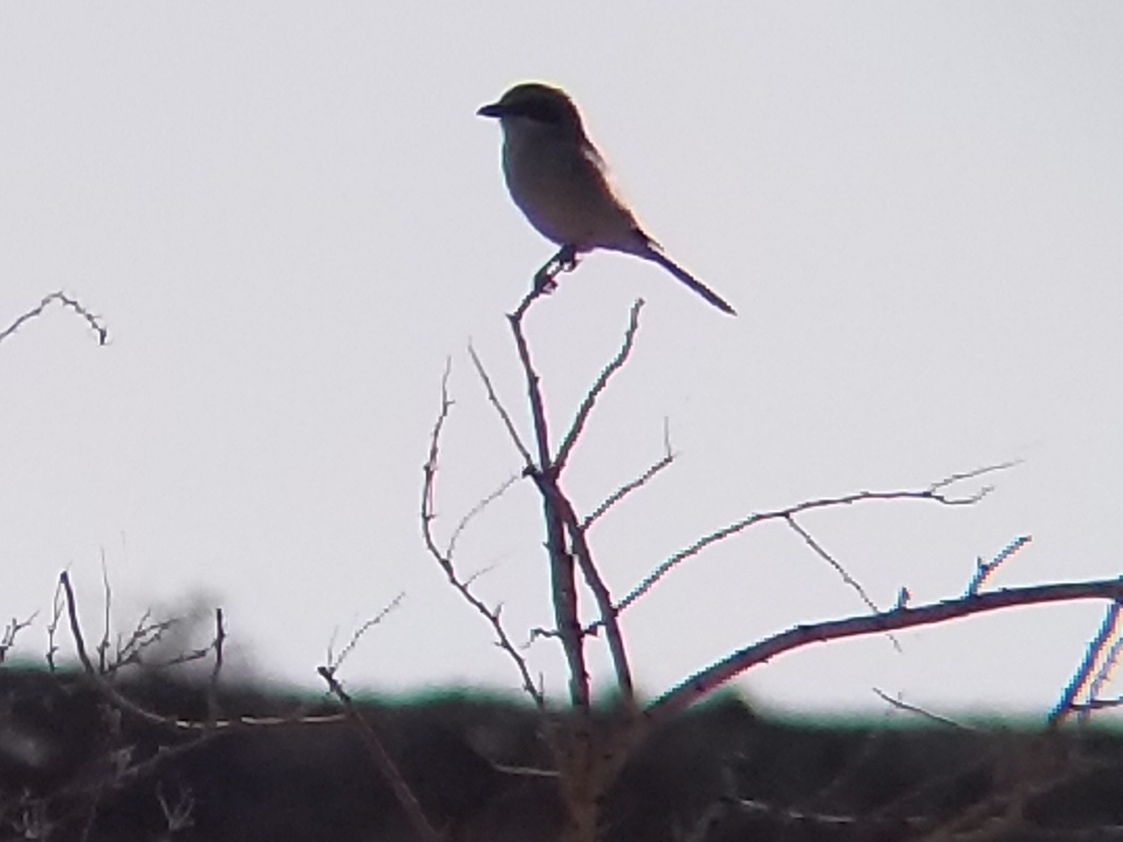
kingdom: Animalia
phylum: Chordata
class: Aves
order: Passeriformes
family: Laniidae
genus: Lanius
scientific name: Lanius ludovicianus
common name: Loggerhead shrike
